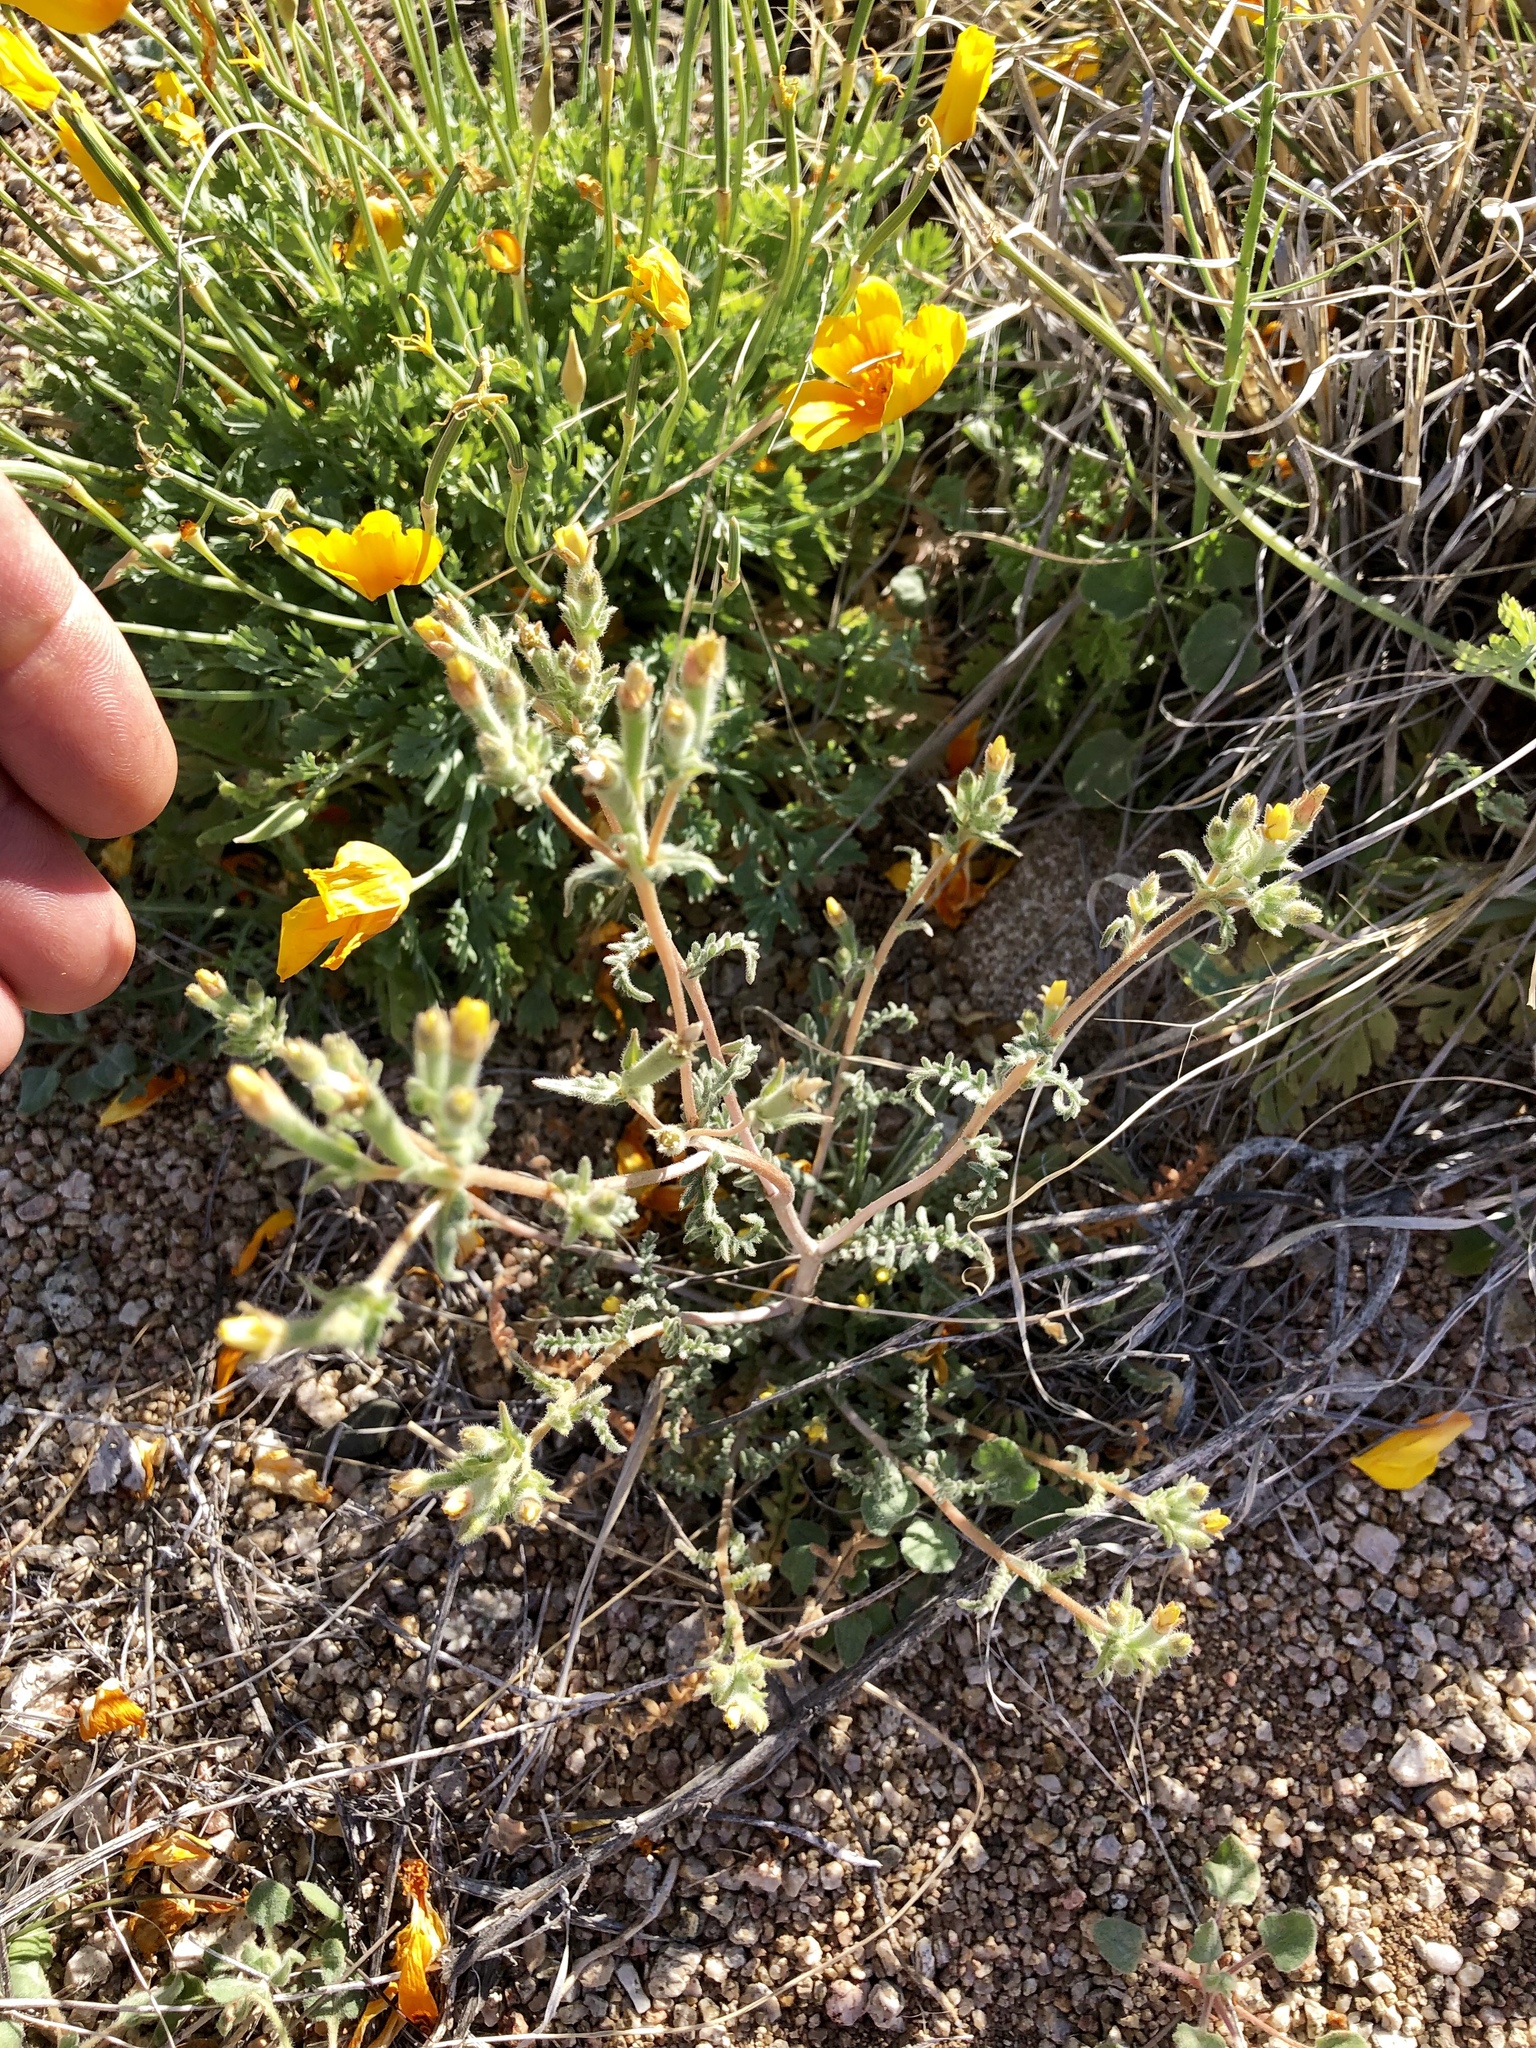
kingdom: Plantae
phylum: Tracheophyta
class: Magnoliopsida
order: Cornales
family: Loasaceae
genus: Mentzelia
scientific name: Mentzelia albicaulis
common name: White-stem blazingstar
